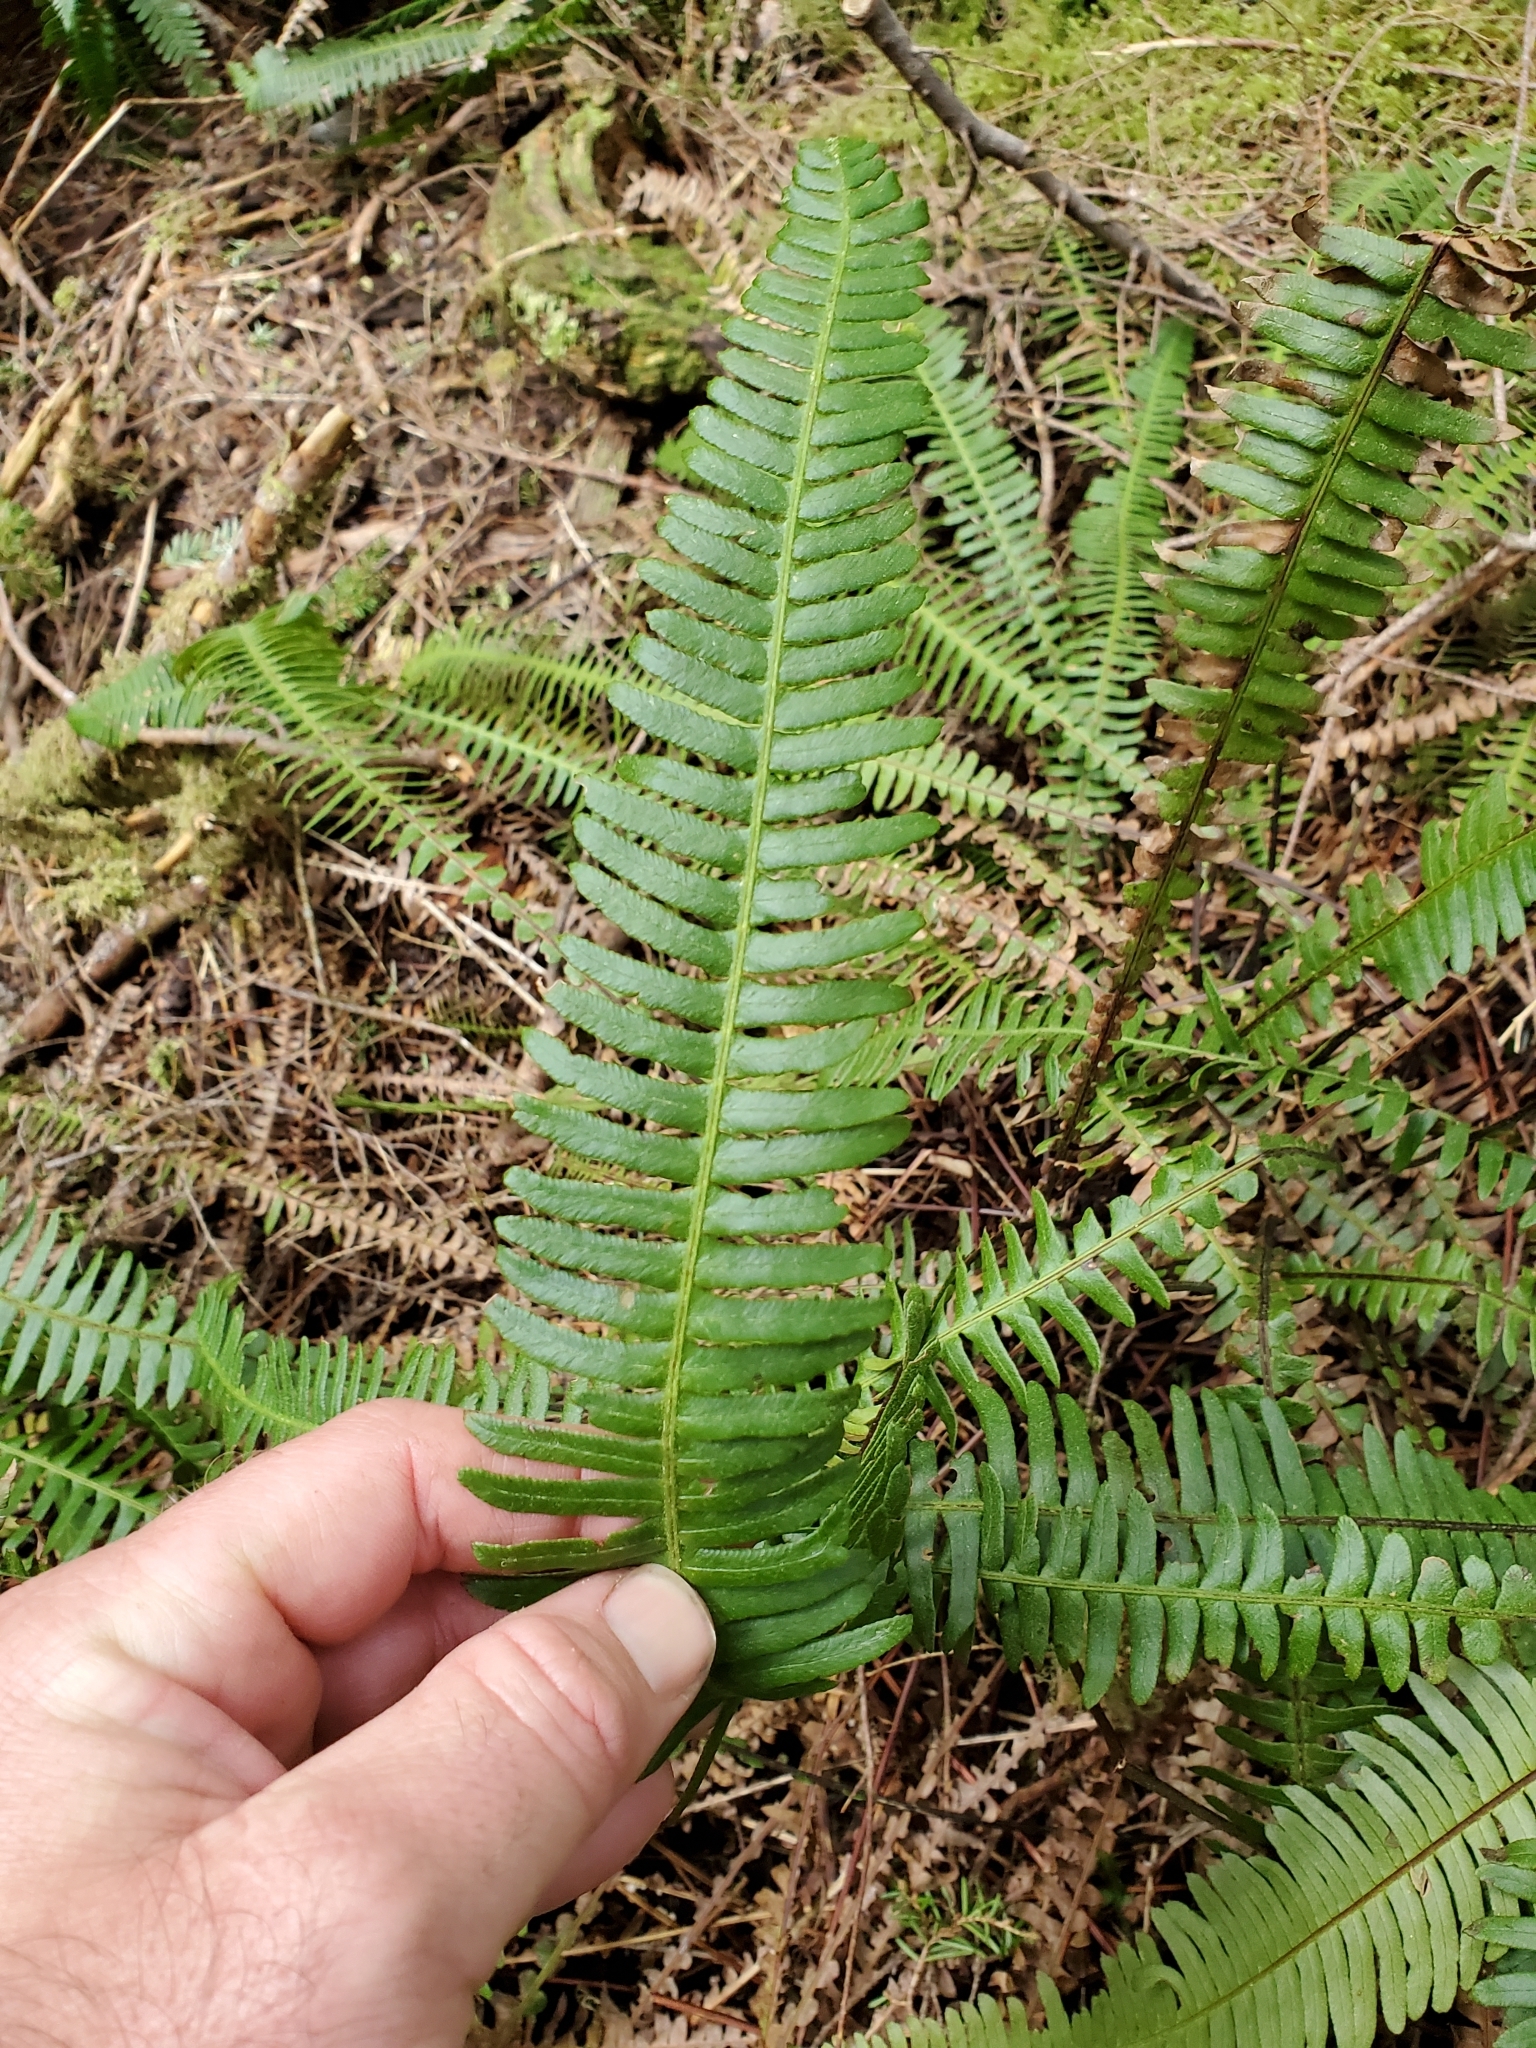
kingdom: Plantae
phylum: Tracheophyta
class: Polypodiopsida
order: Polypodiales
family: Blechnaceae
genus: Struthiopteris
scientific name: Struthiopteris spicant
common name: Deer fern
